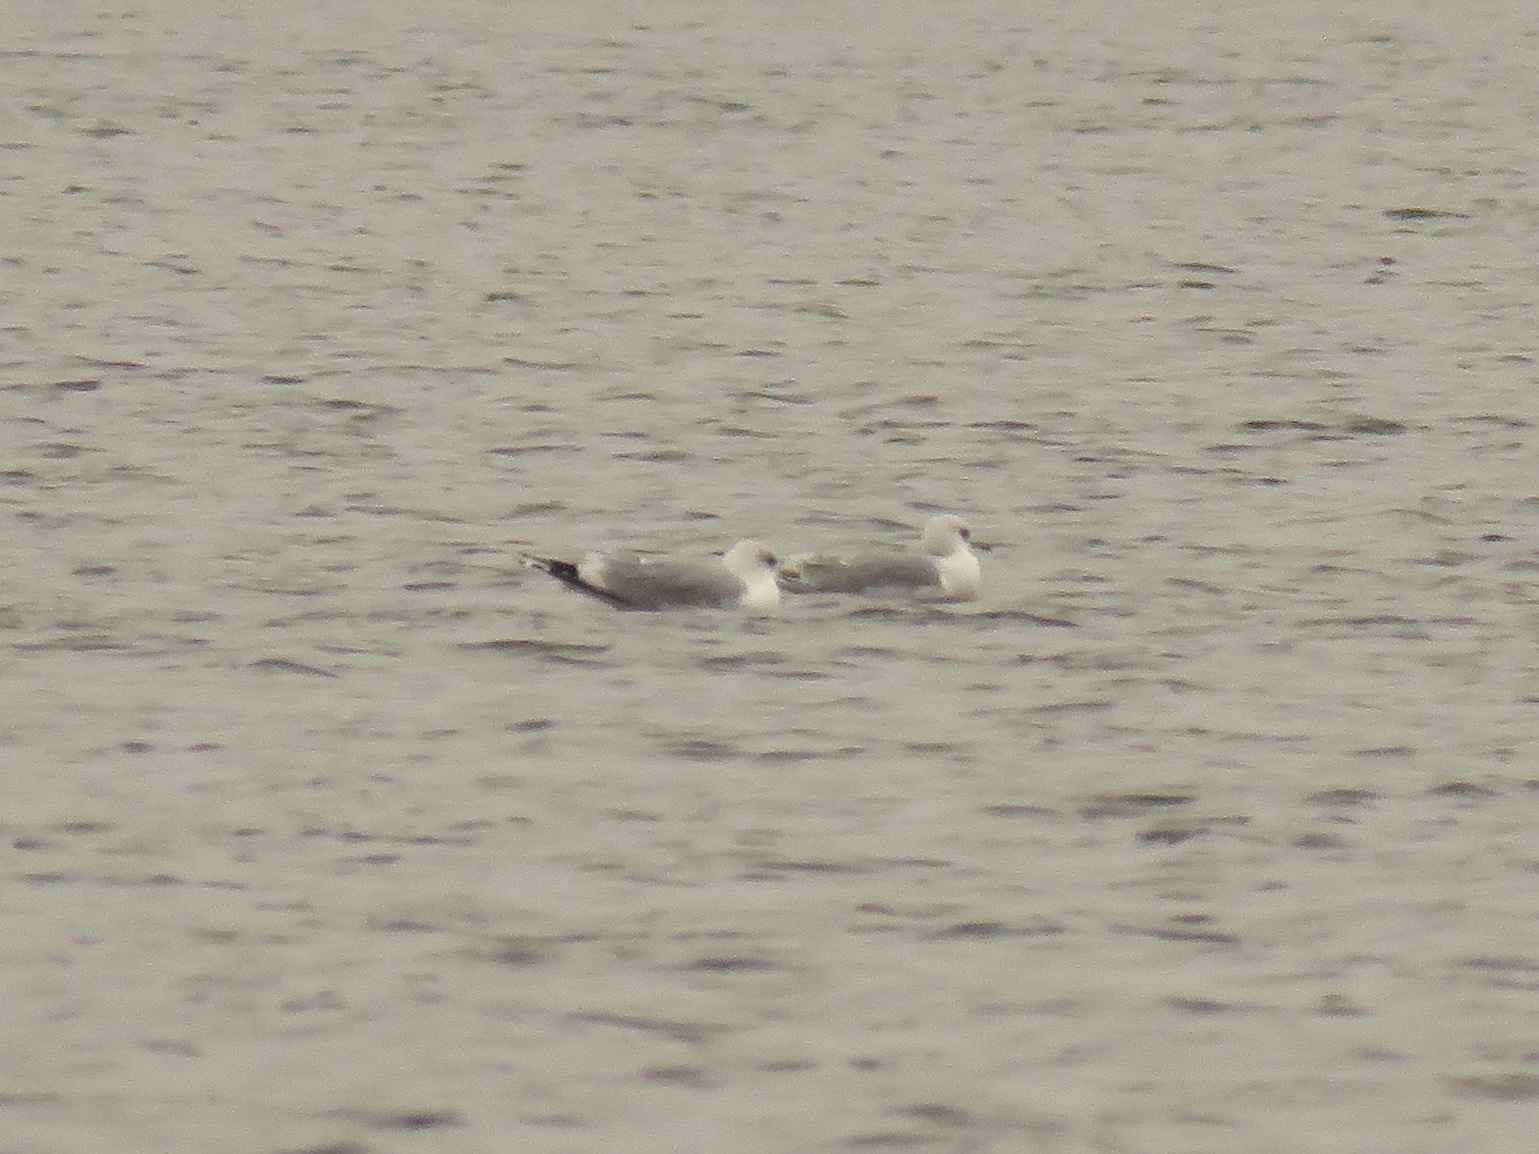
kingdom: Animalia
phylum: Chordata
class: Aves
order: Charadriiformes
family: Laridae
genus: Larus
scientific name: Larus canus
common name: Mew gull
